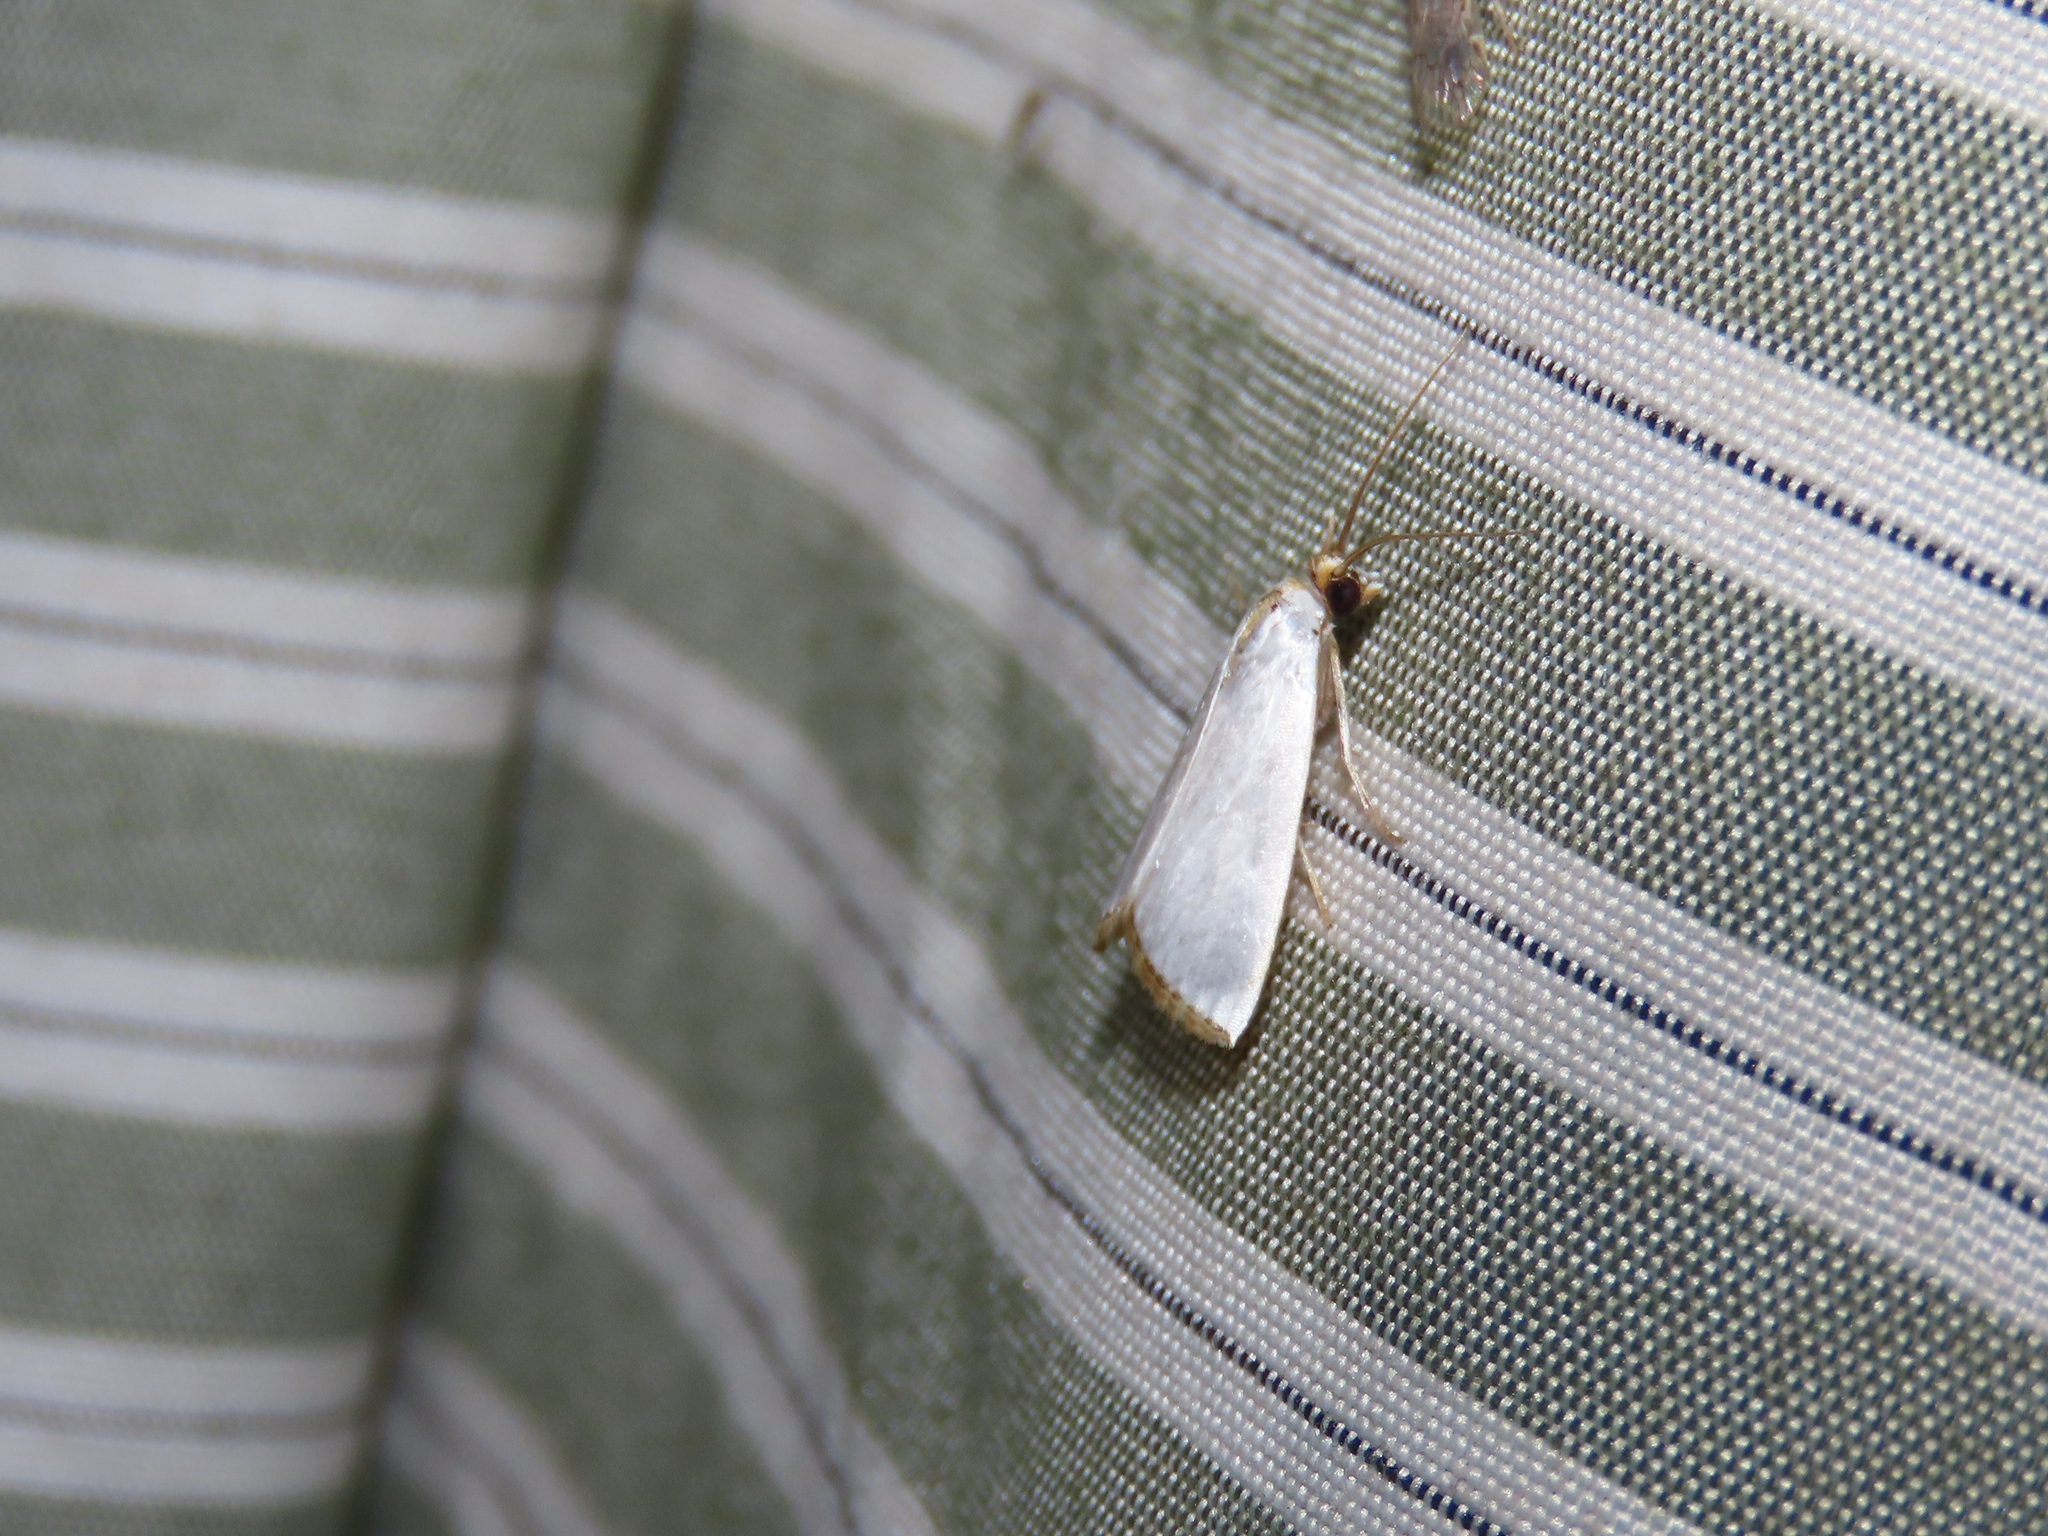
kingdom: Animalia
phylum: Arthropoda
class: Insecta
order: Lepidoptera
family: Crambidae
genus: Argyria
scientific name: Argyria nivalis
